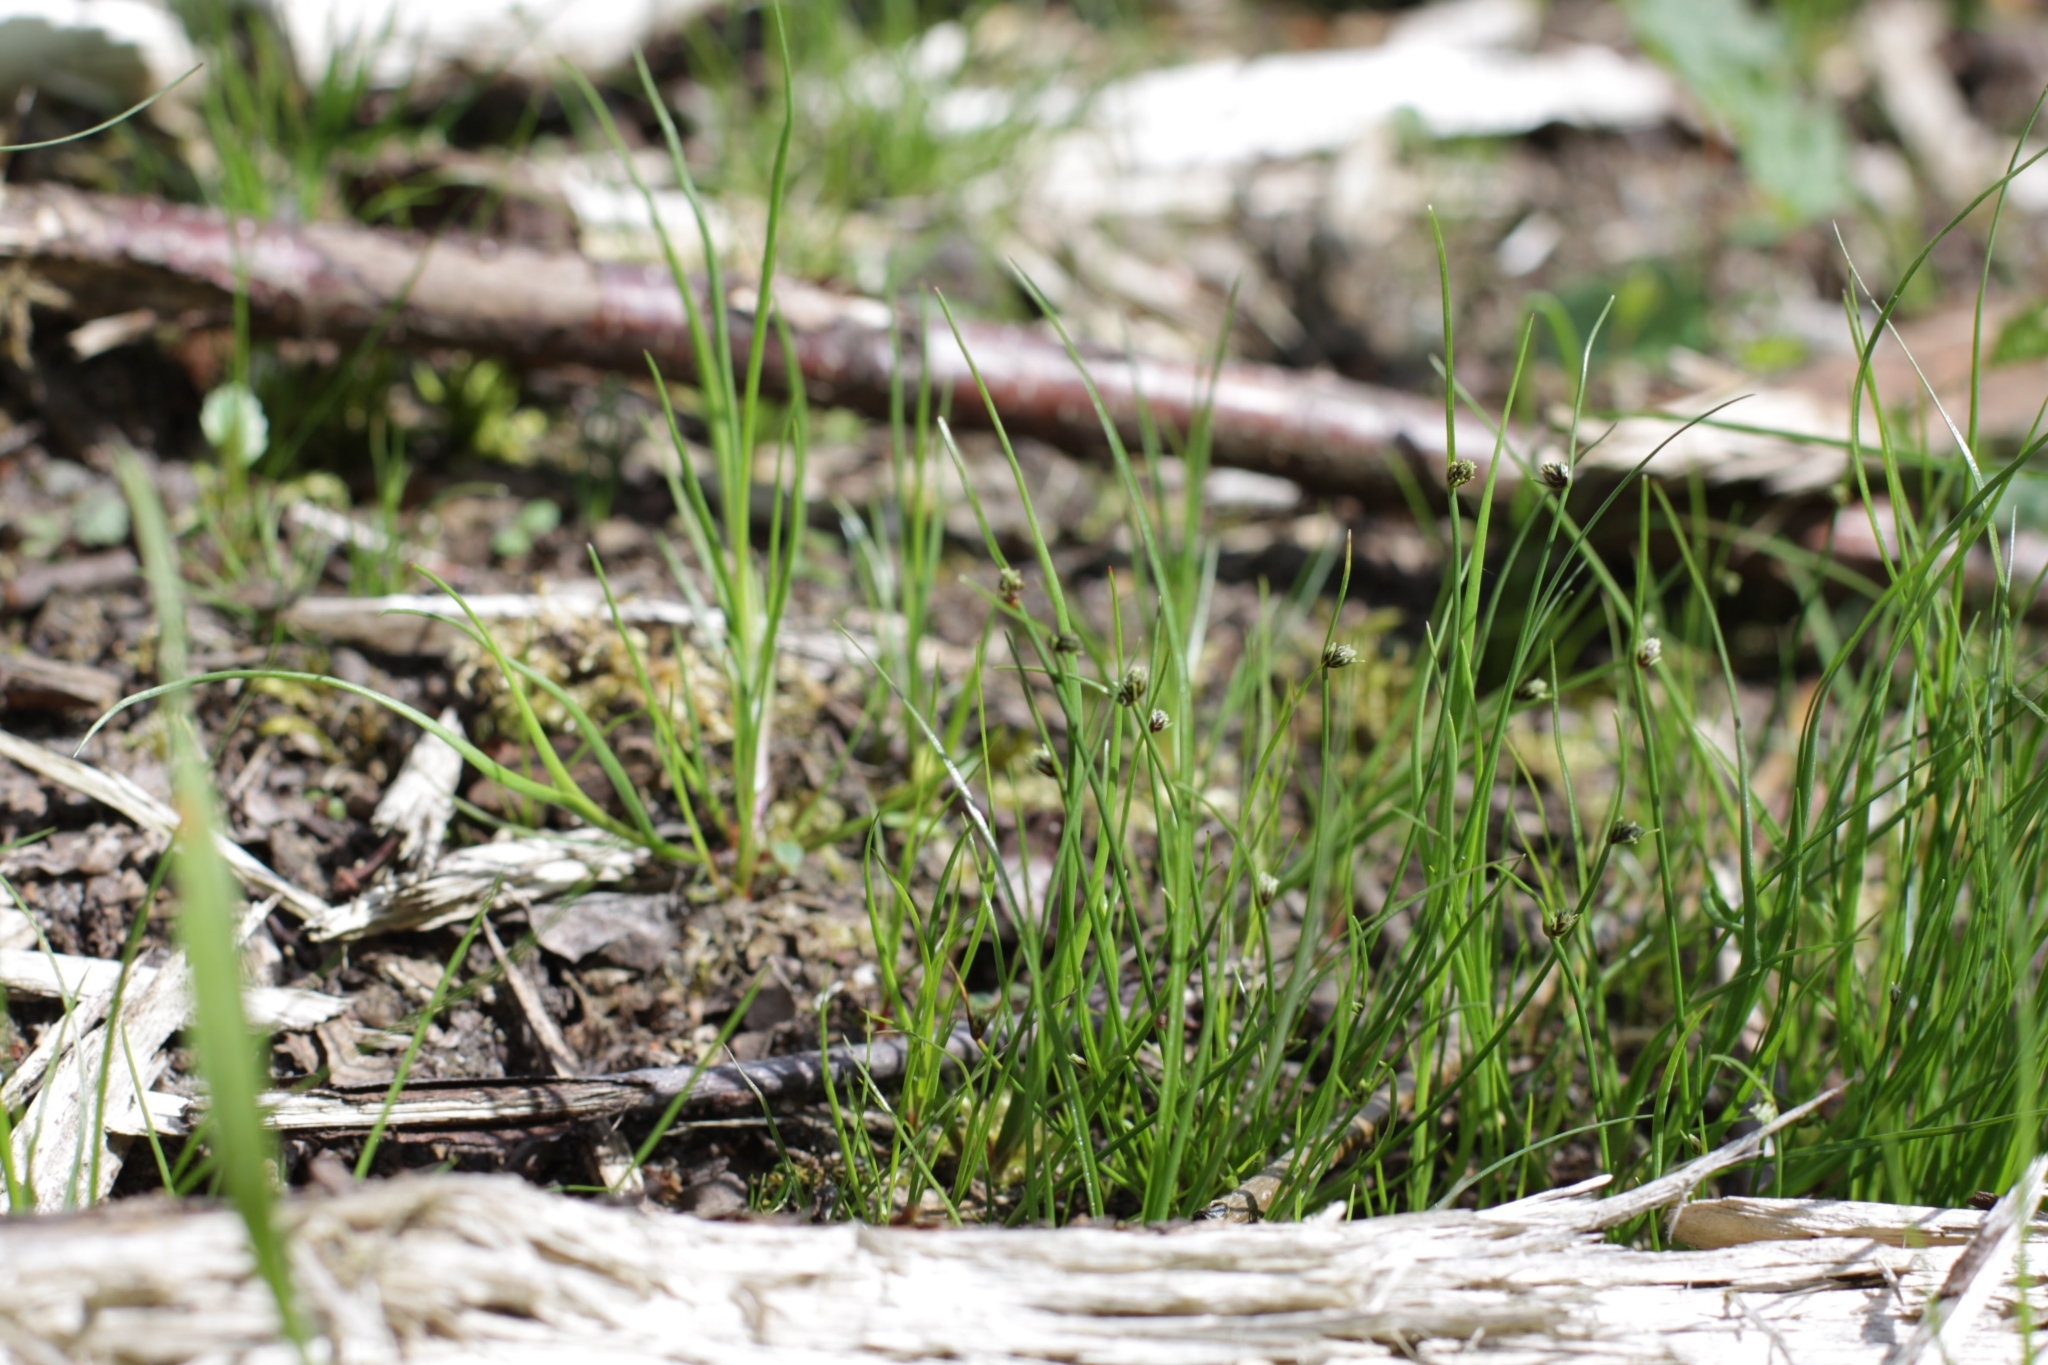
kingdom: Plantae
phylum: Tracheophyta
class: Liliopsida
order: Poales
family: Cyperaceae
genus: Isolepis
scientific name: Isolepis setacea
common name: Bristle club-rush
